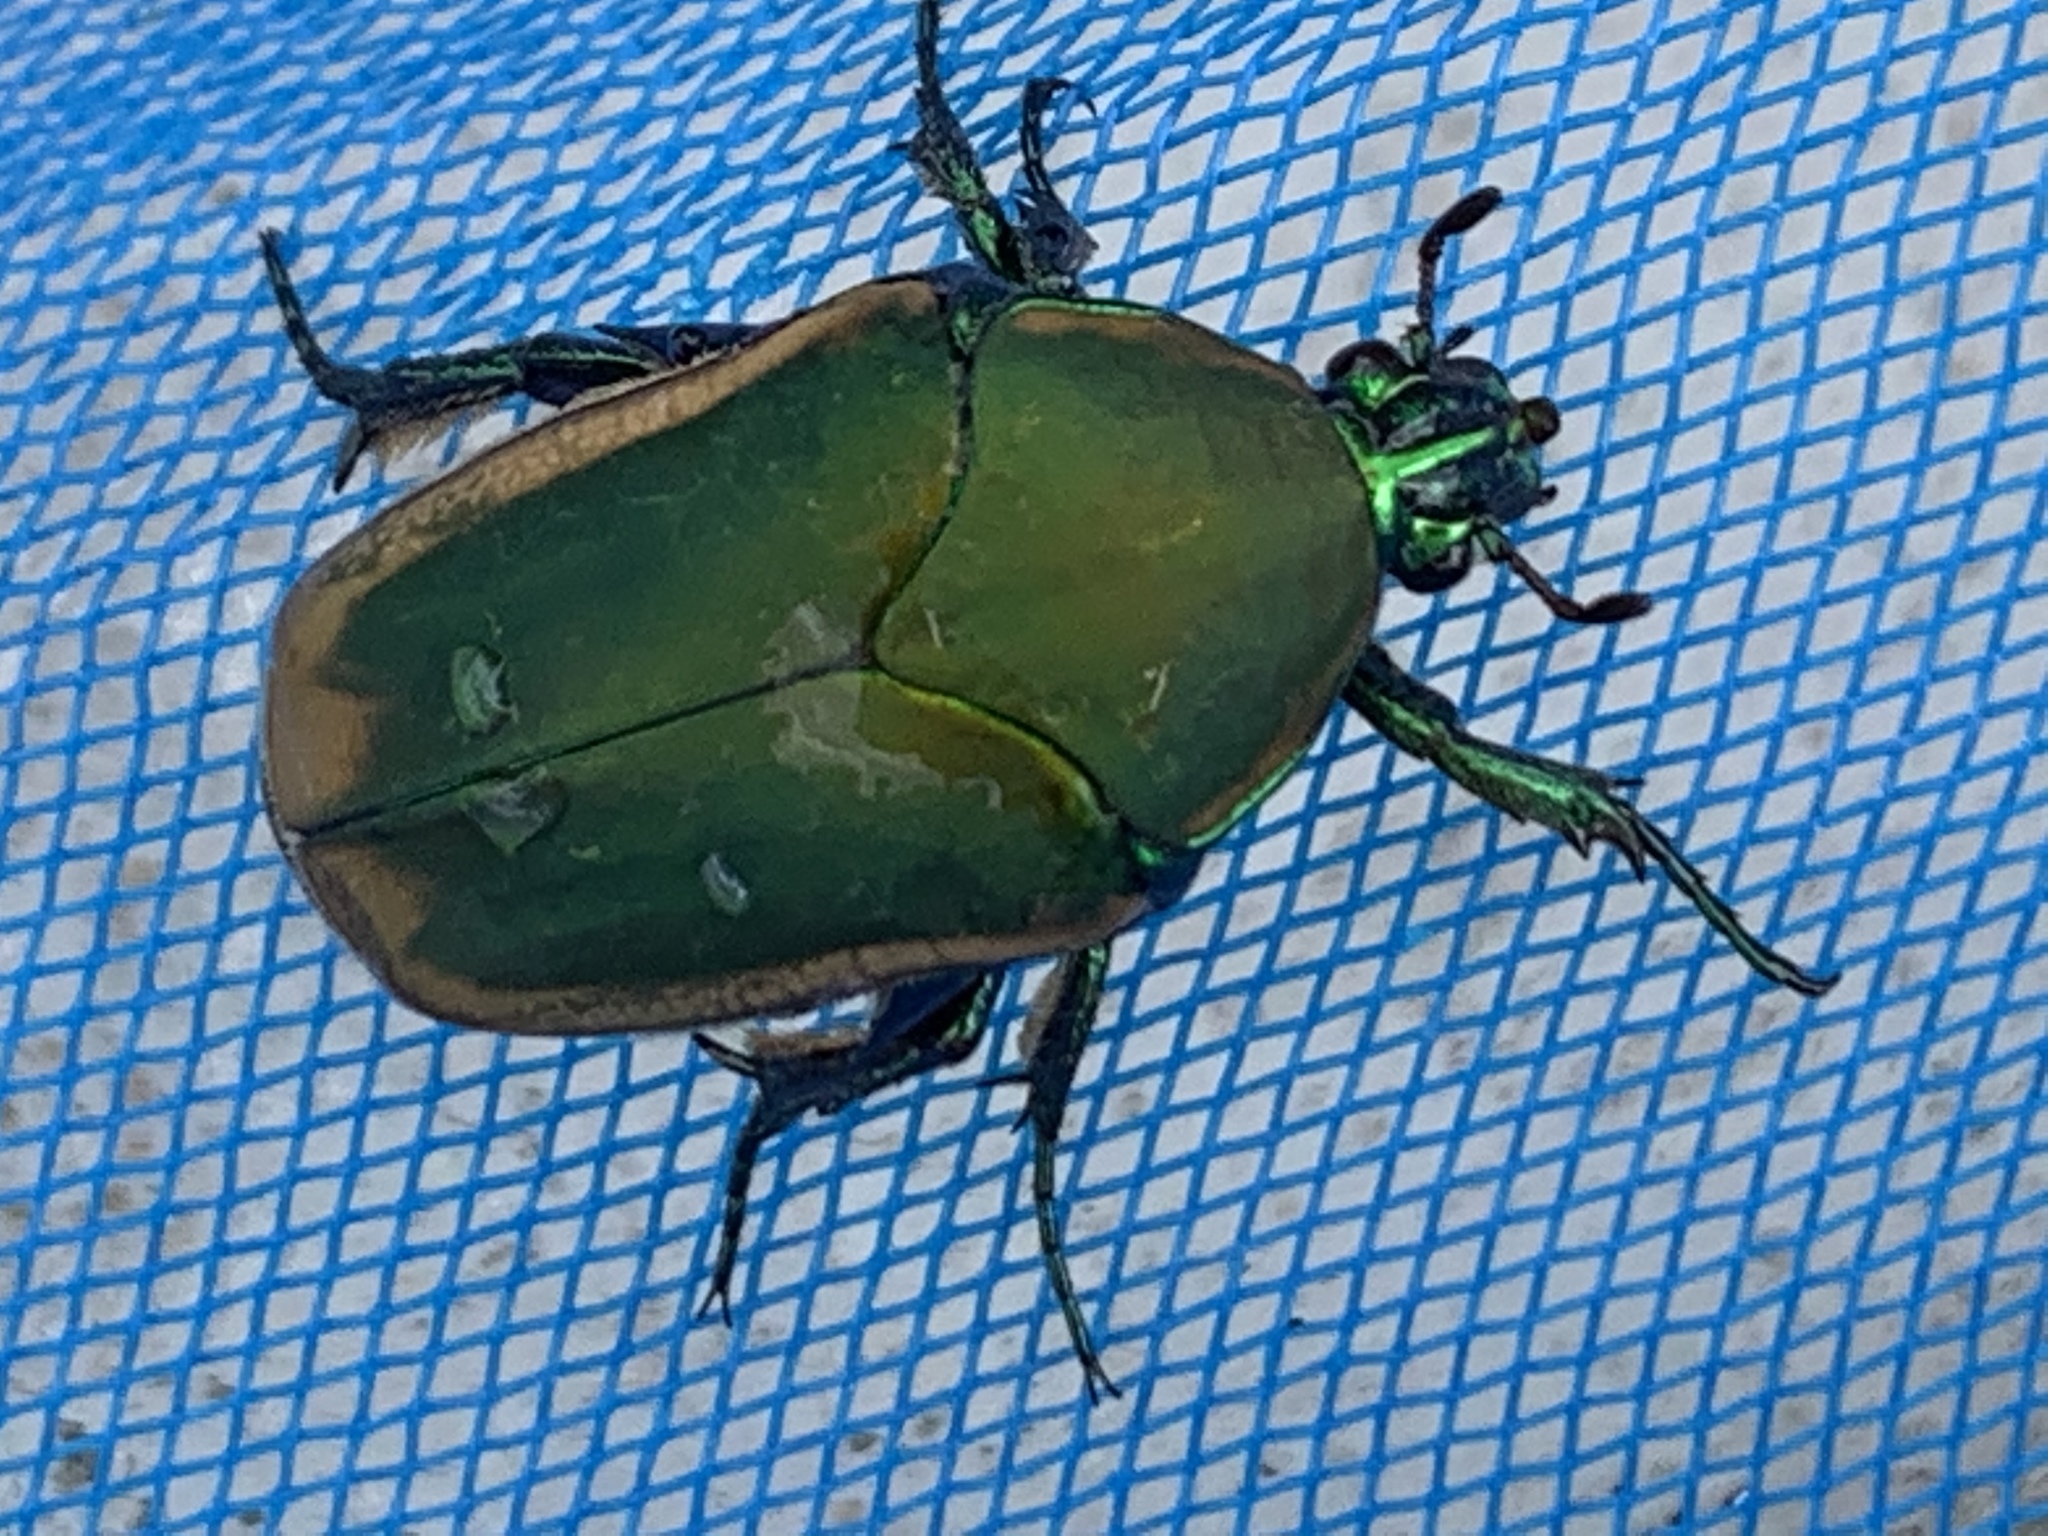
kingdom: Animalia
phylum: Arthropoda
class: Insecta
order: Coleoptera
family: Scarabaeidae
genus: Cotinis
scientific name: Cotinis mutabilis
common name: Figeater beetle
